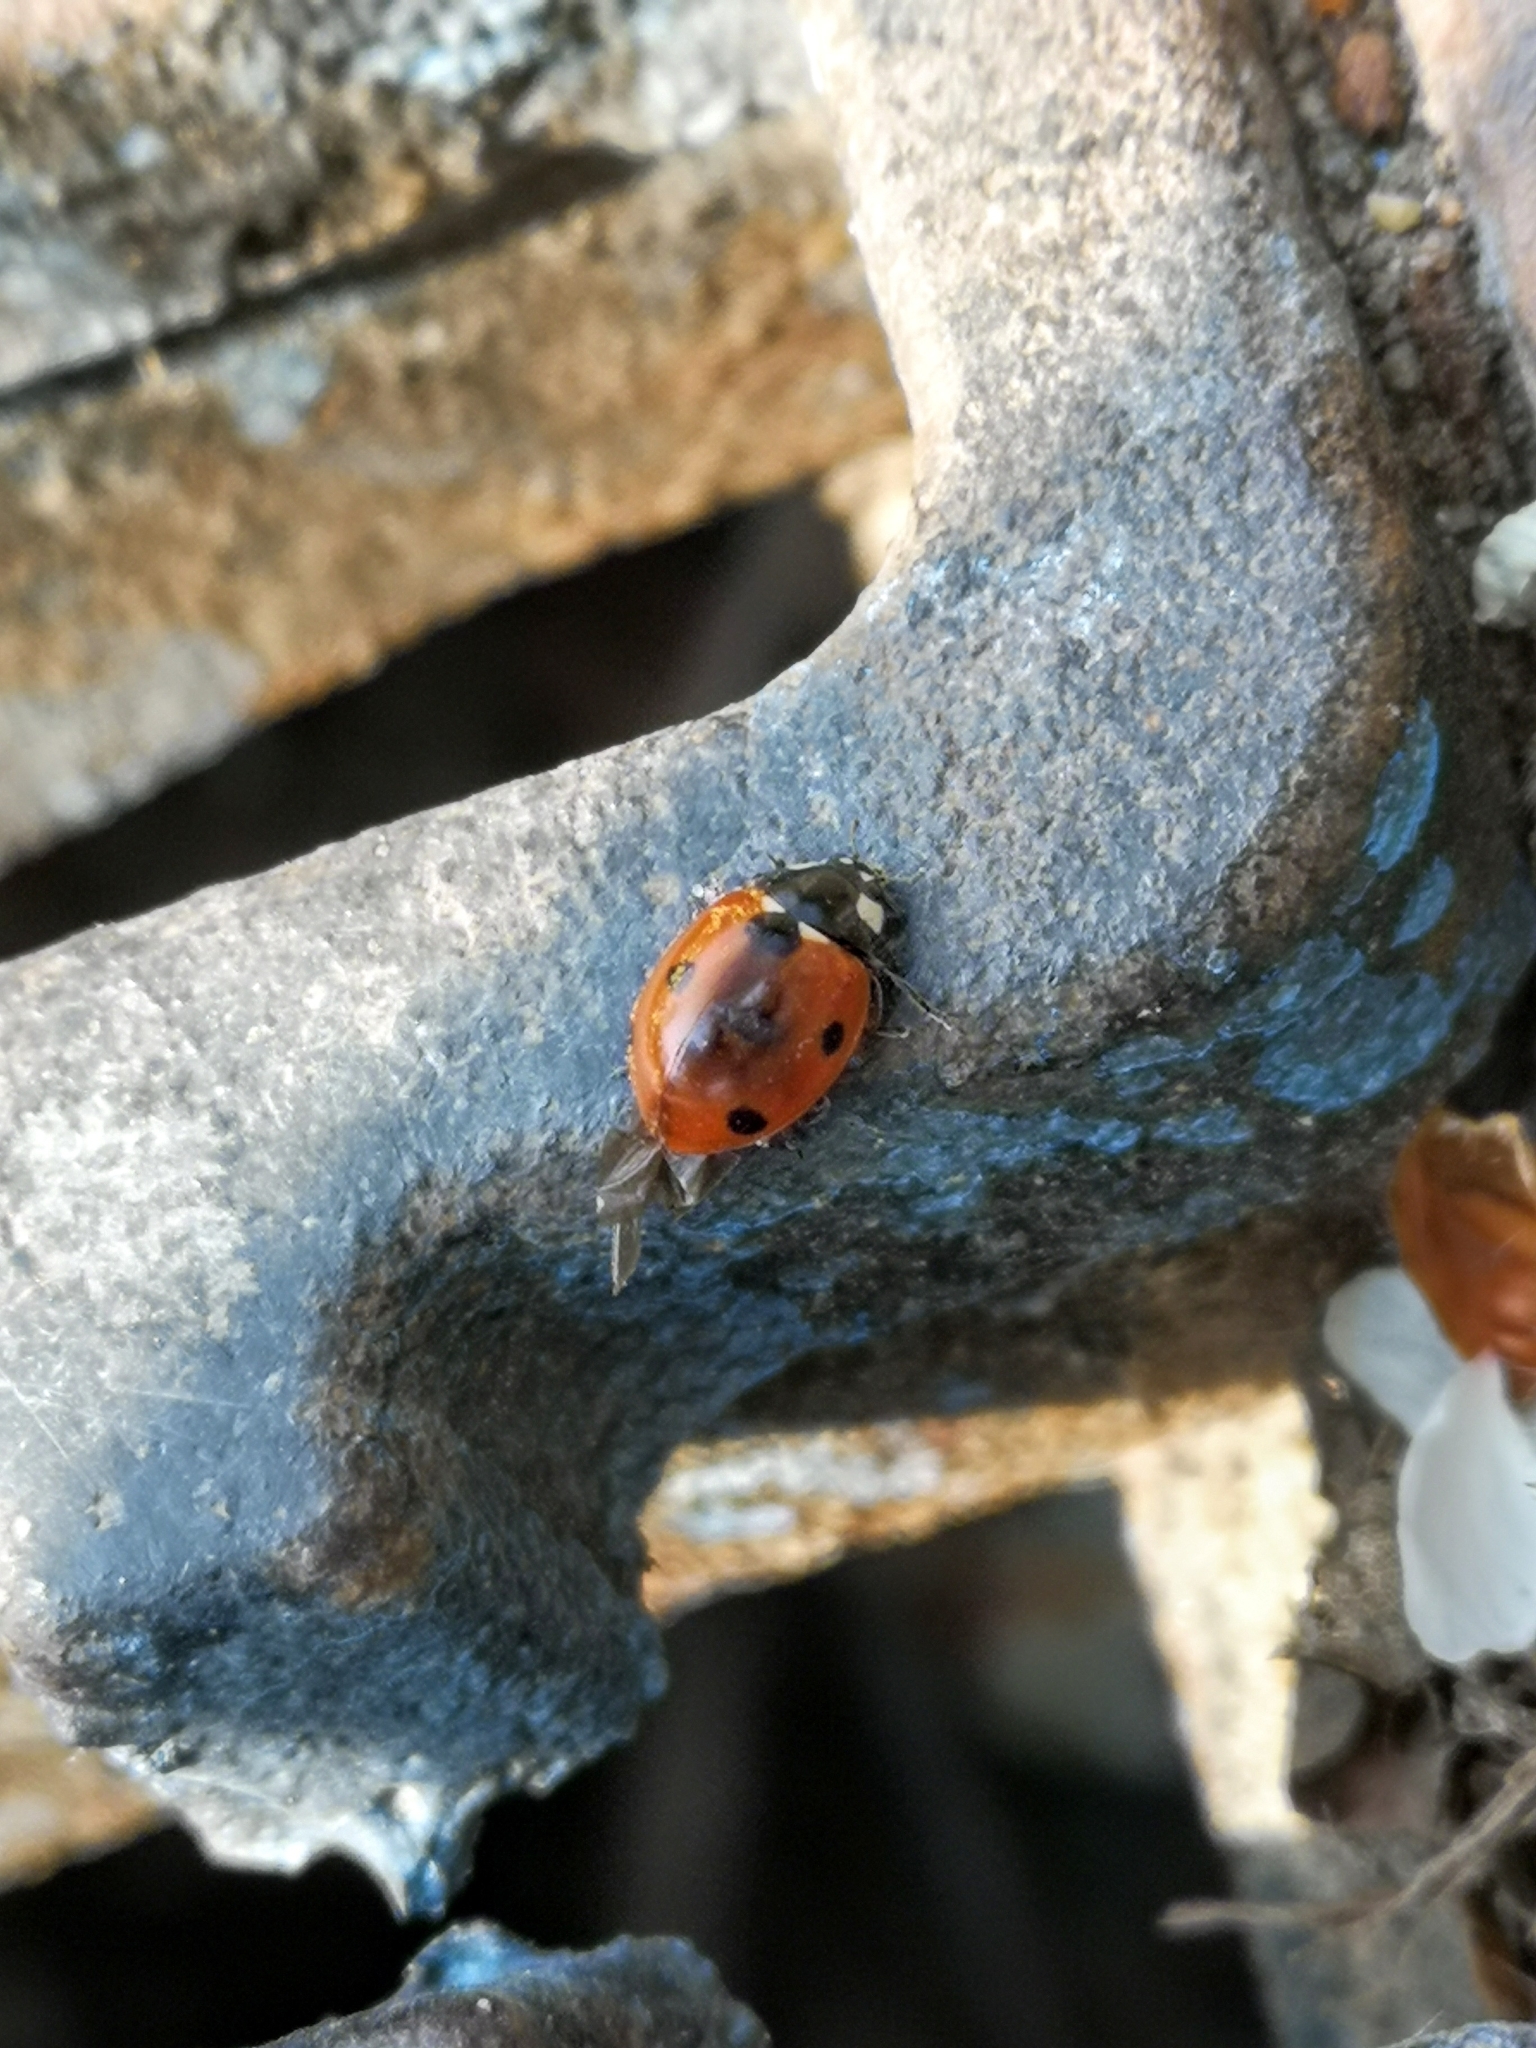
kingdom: Animalia
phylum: Arthropoda
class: Insecta
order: Coleoptera
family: Coccinellidae
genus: Coccinella
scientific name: Coccinella septempunctata
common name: Sevenspotted lady beetle
